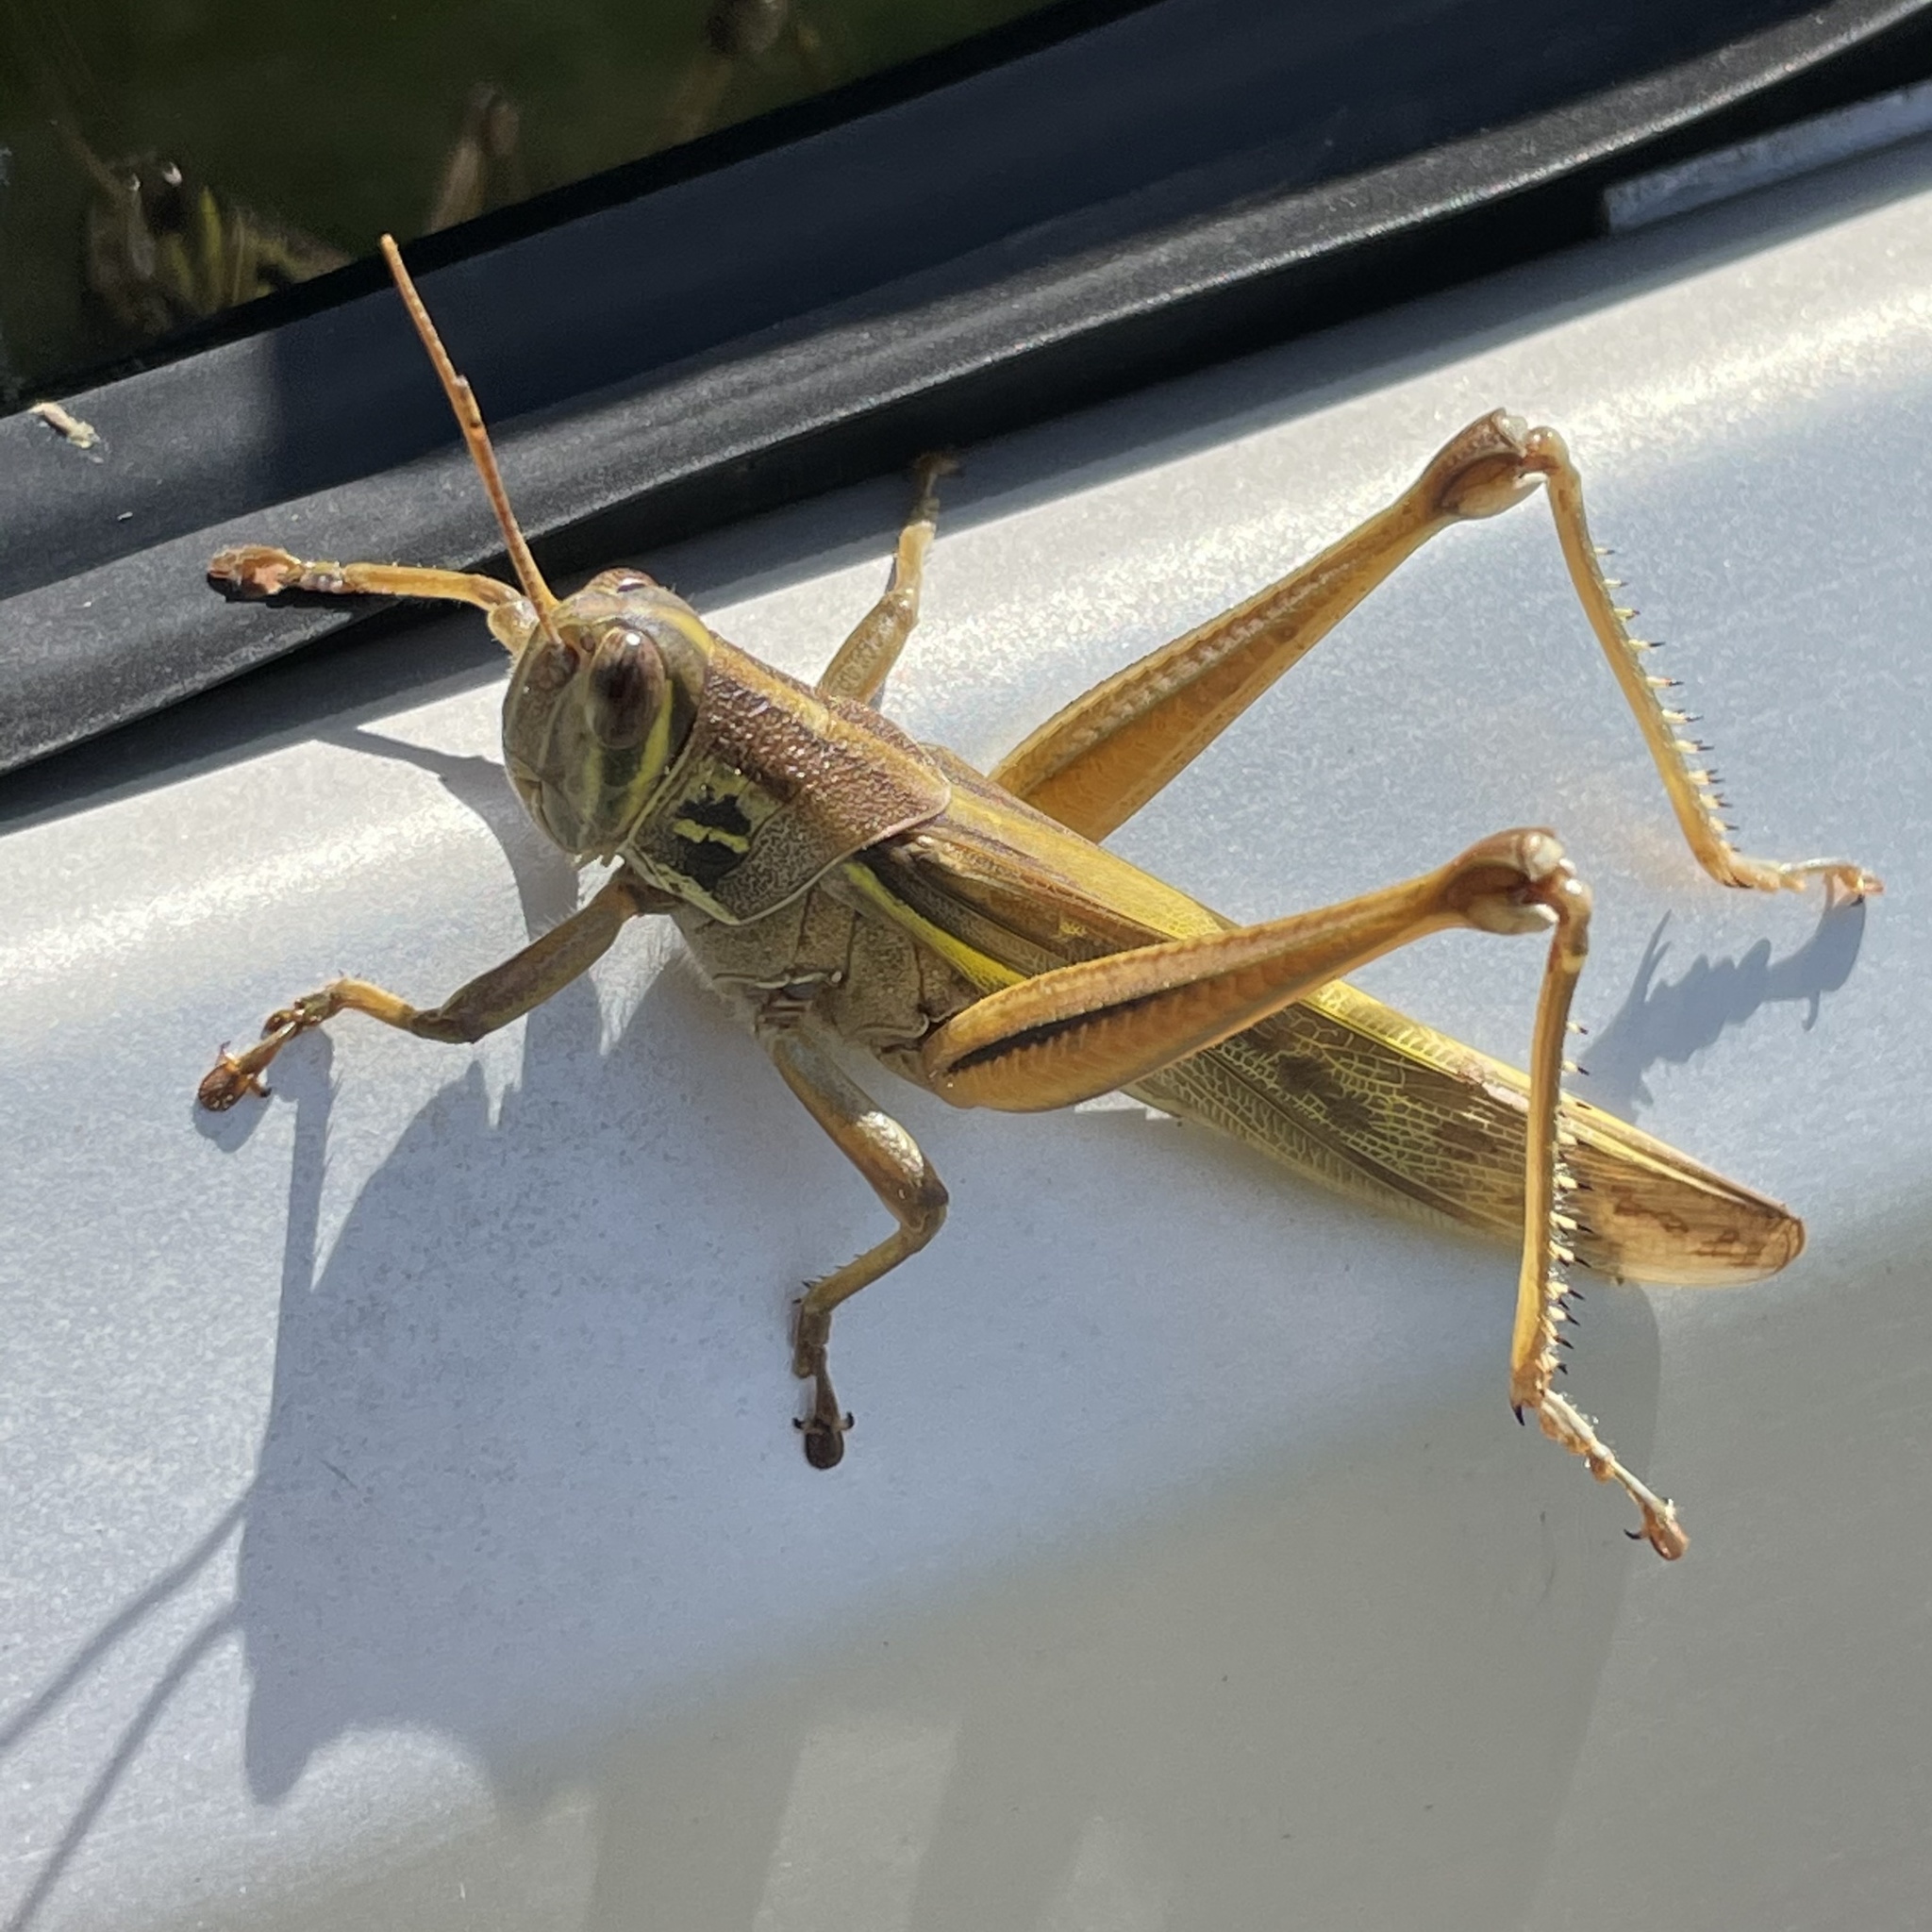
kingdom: Animalia
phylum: Arthropoda
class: Insecta
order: Orthoptera
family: Acrididae
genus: Patanga
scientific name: Patanga japonica
